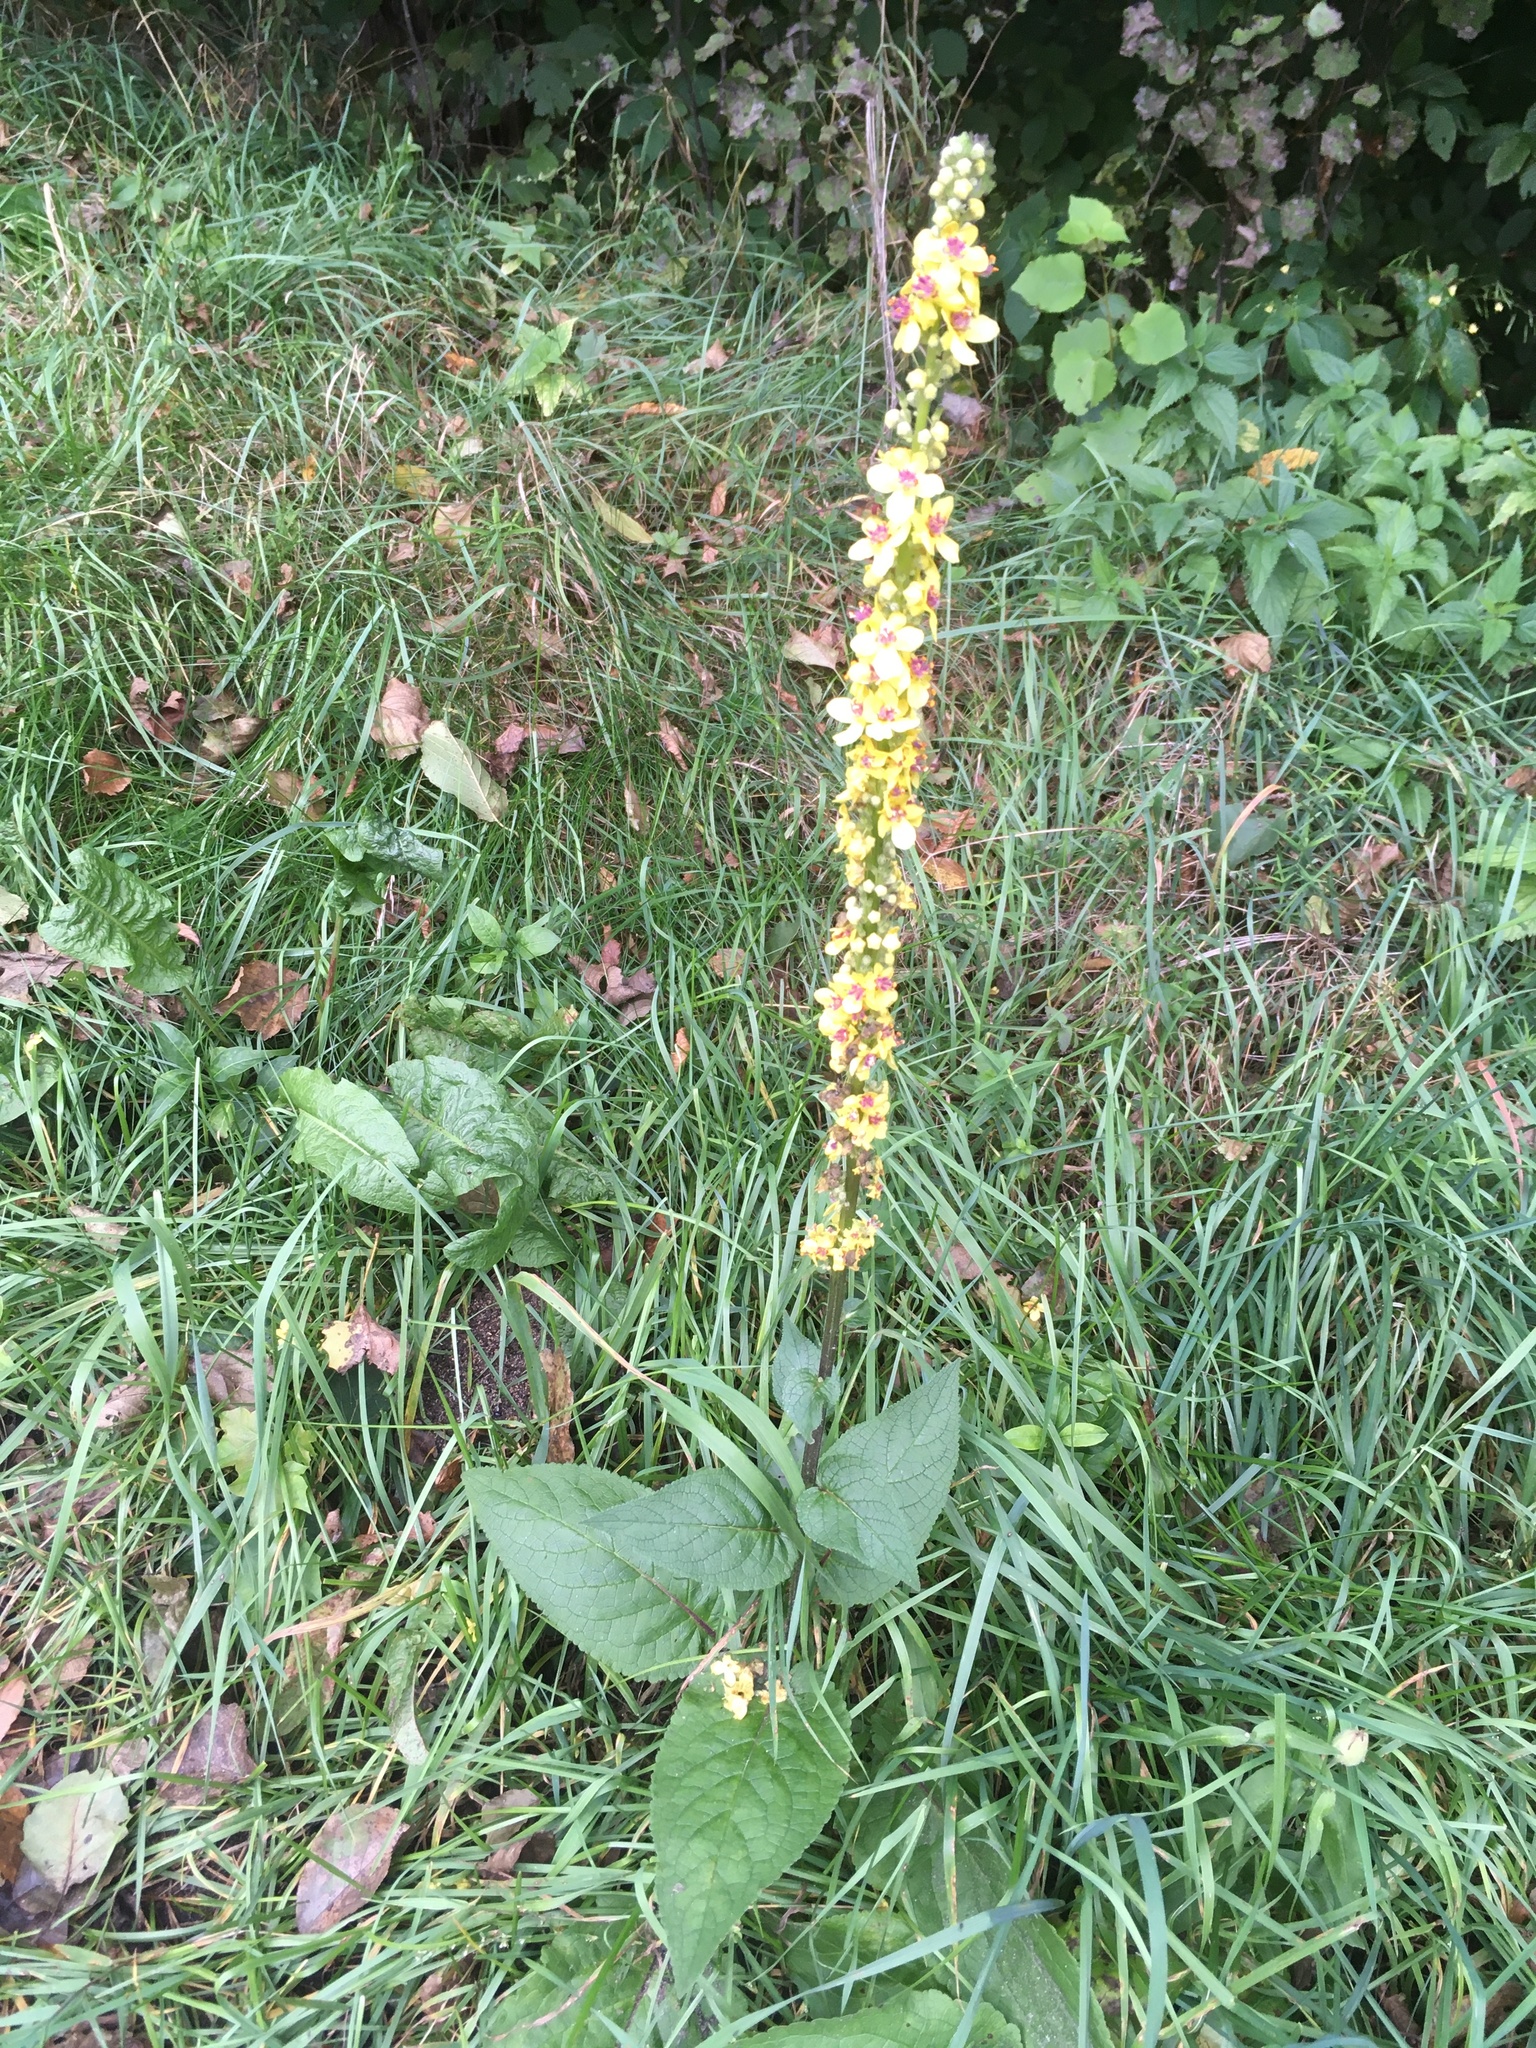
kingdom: Plantae
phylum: Tracheophyta
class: Magnoliopsida
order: Lamiales
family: Scrophulariaceae
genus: Verbascum
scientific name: Verbascum nigrum
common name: Dark mullein
